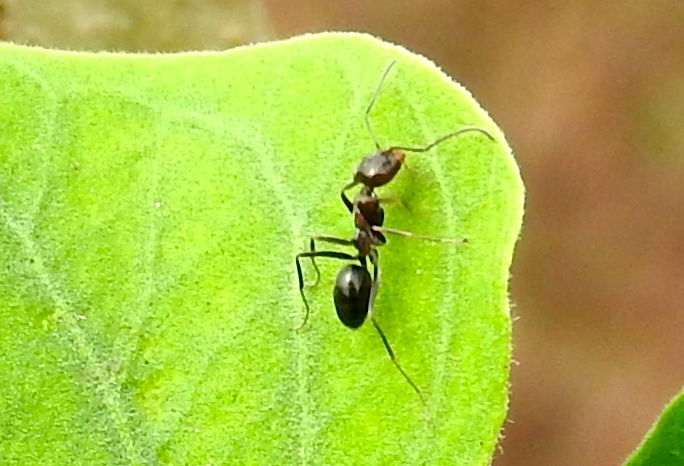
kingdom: Animalia
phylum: Arthropoda
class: Insecta
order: Hymenoptera
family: Formicidae
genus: Dorymyrmex
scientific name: Dorymyrmex
